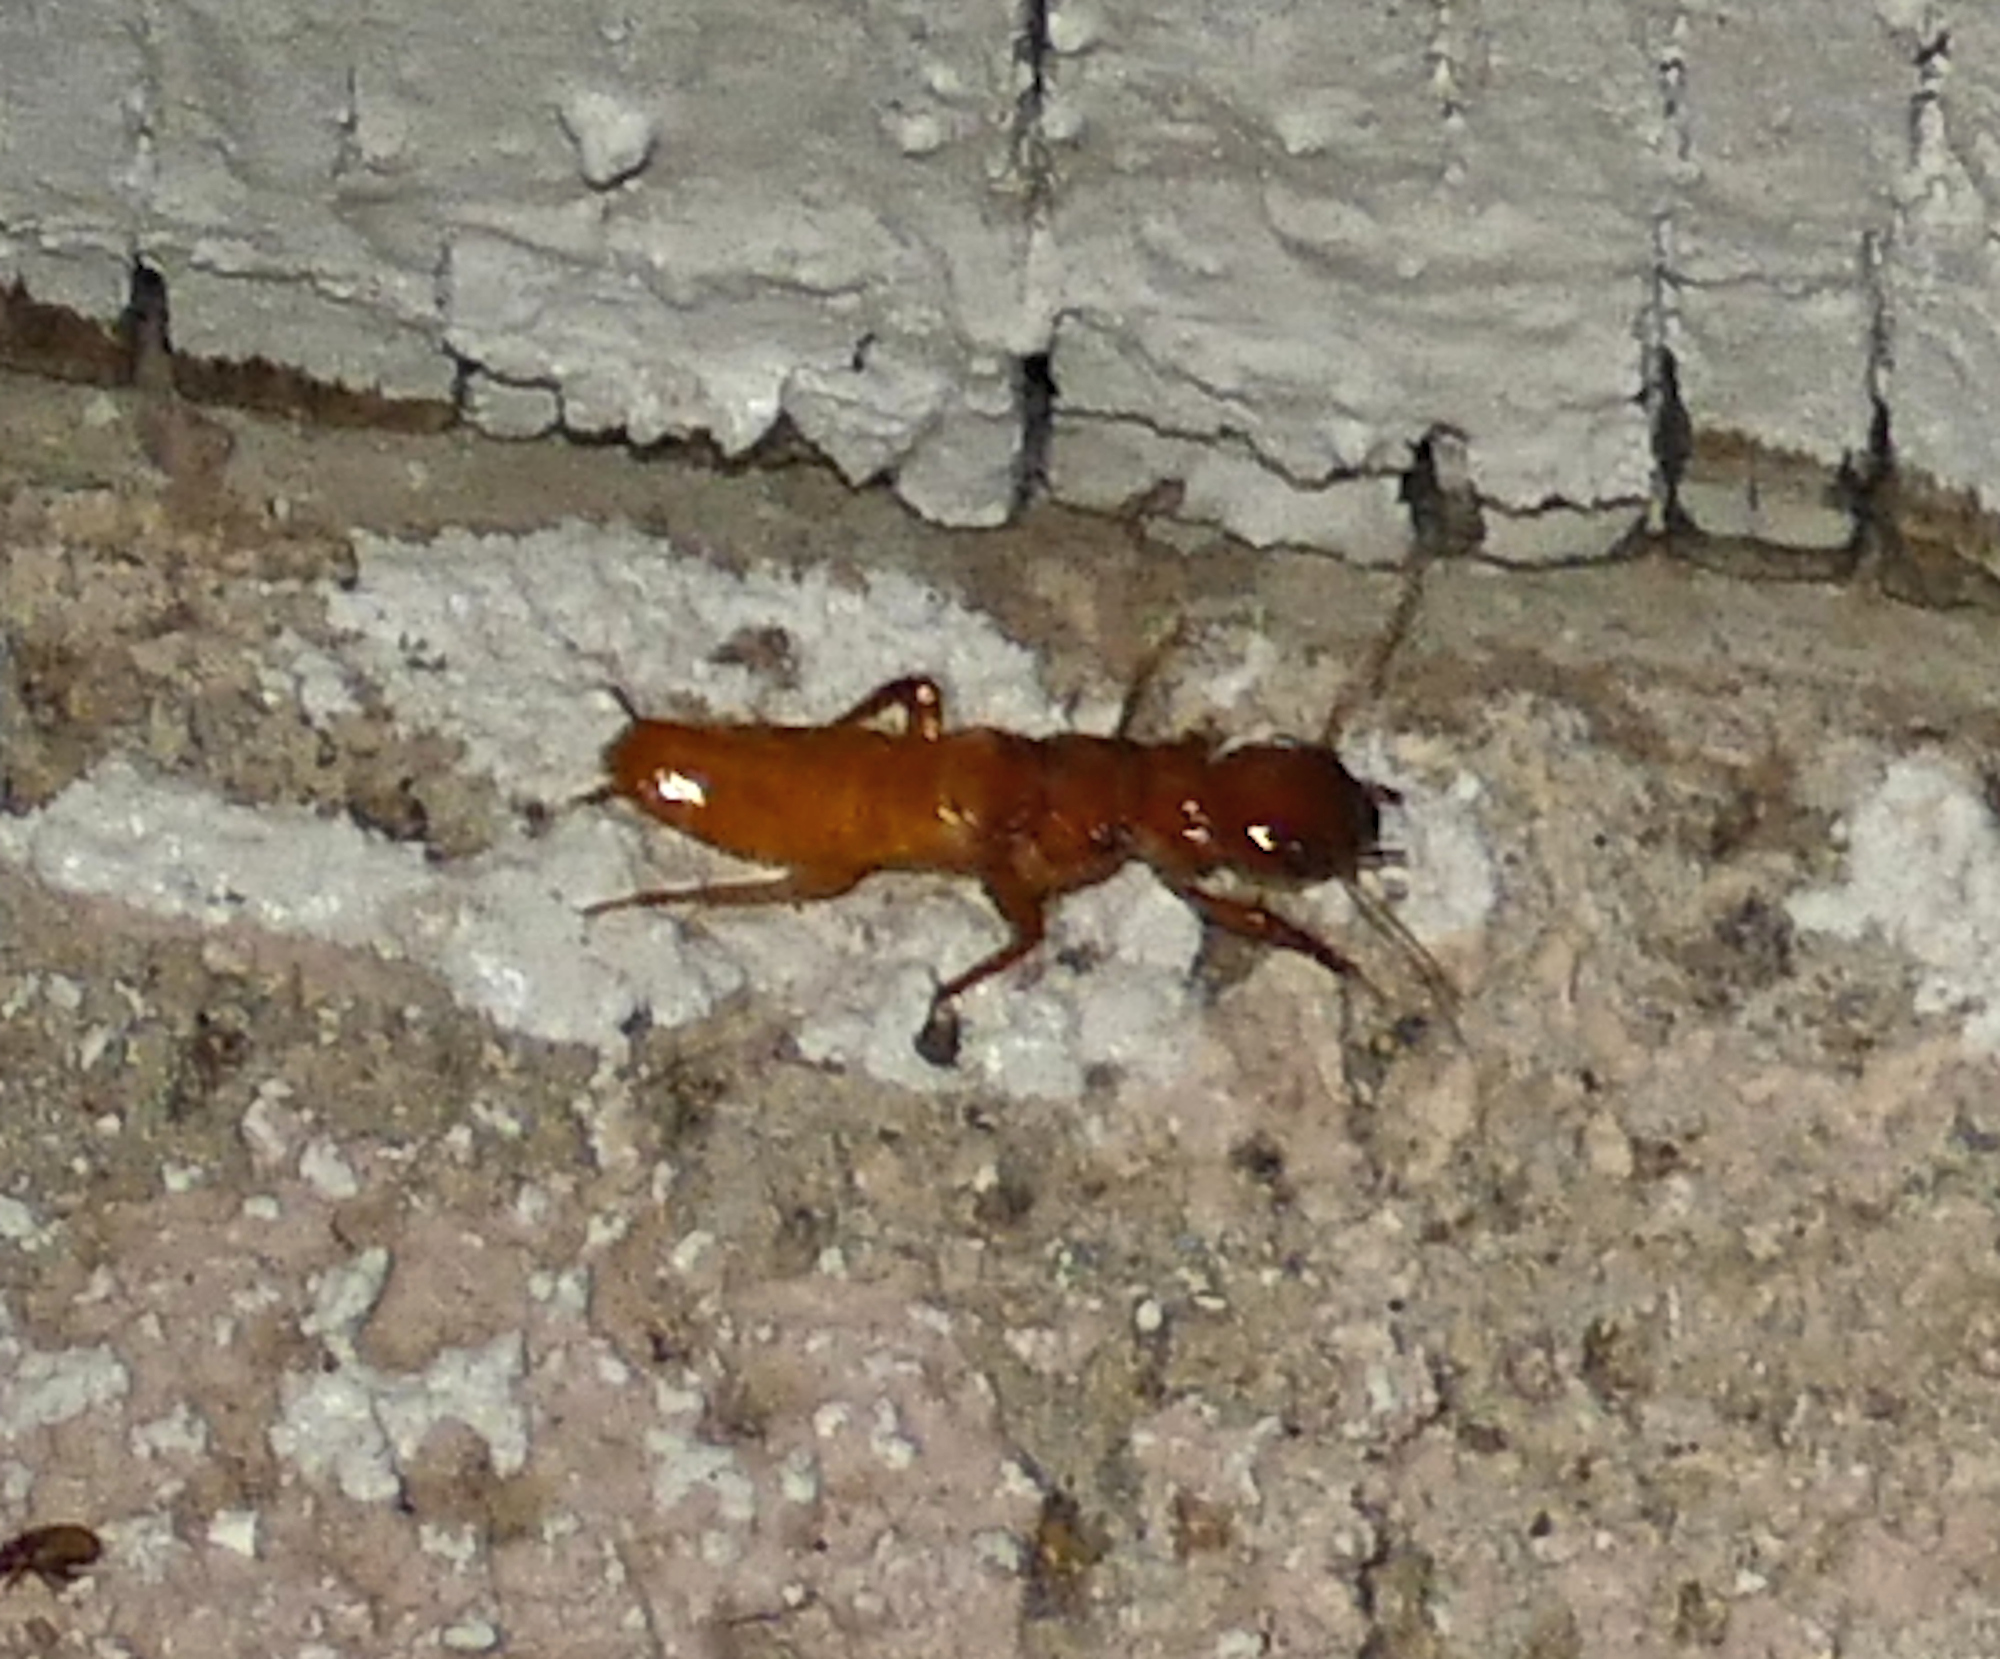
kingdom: Animalia
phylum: Arthropoda
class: Insecta
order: Blattodea
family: Archotermopsidae
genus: Zootermopsis
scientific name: Zootermopsis laticeps
